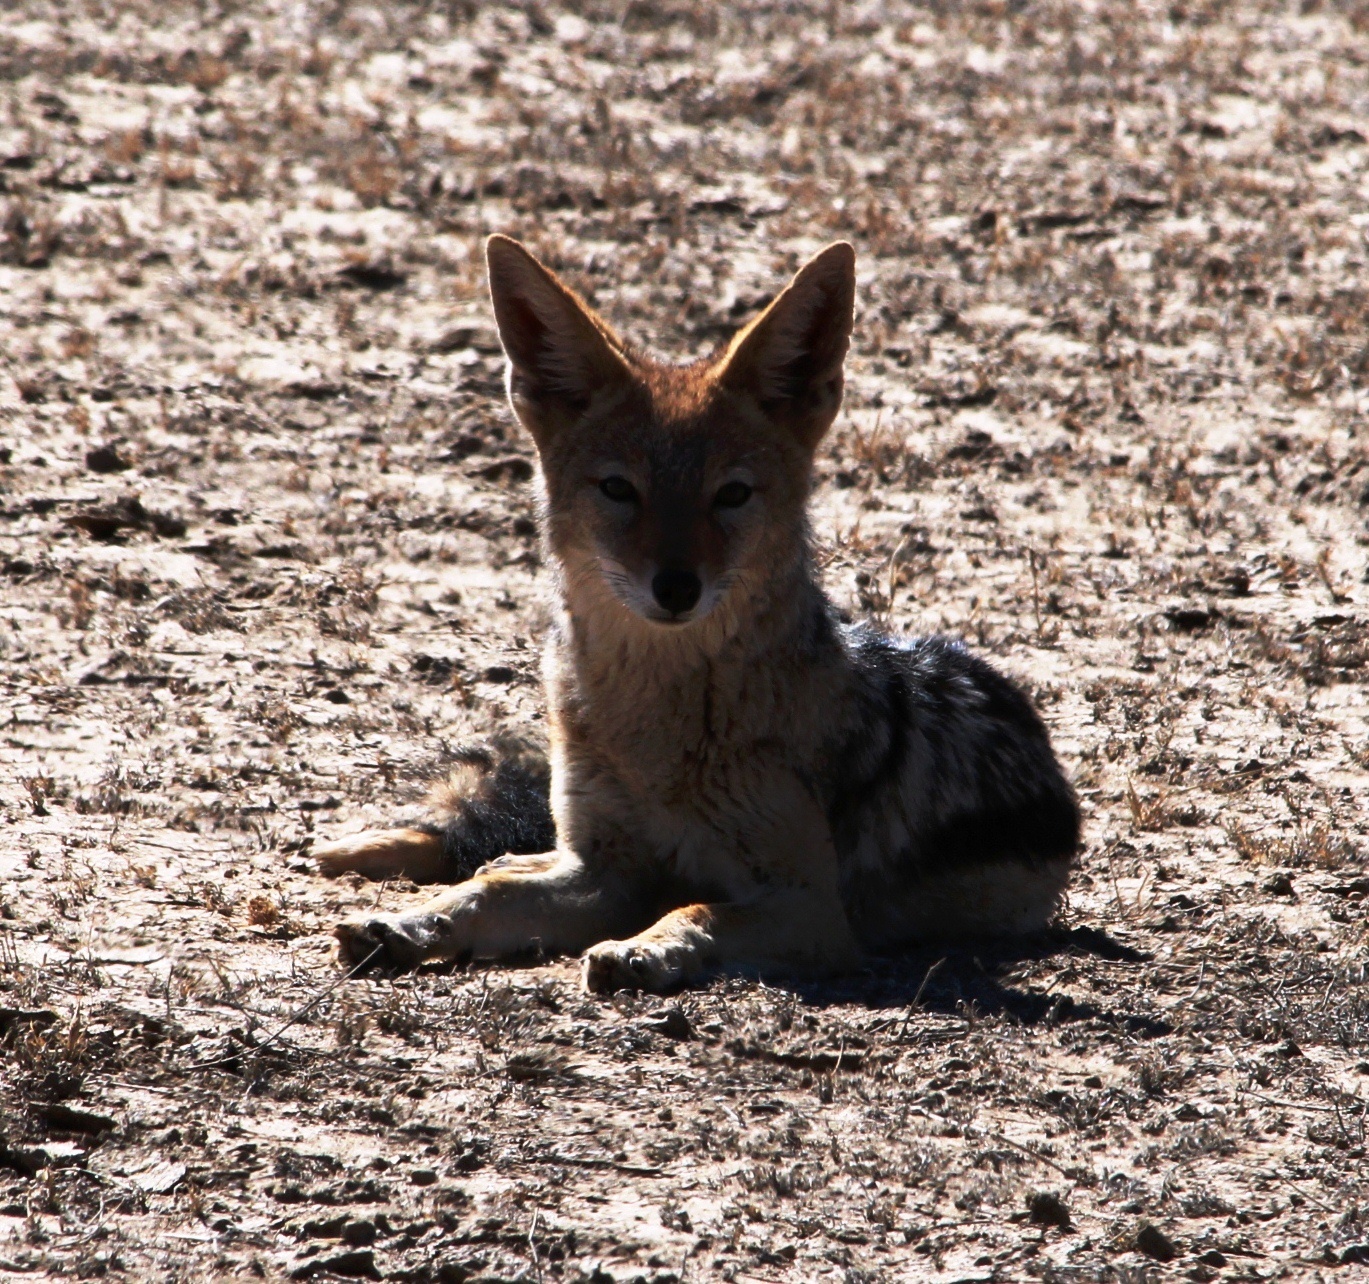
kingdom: Animalia
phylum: Chordata
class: Mammalia
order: Carnivora
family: Canidae
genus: Lupulella
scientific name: Lupulella
